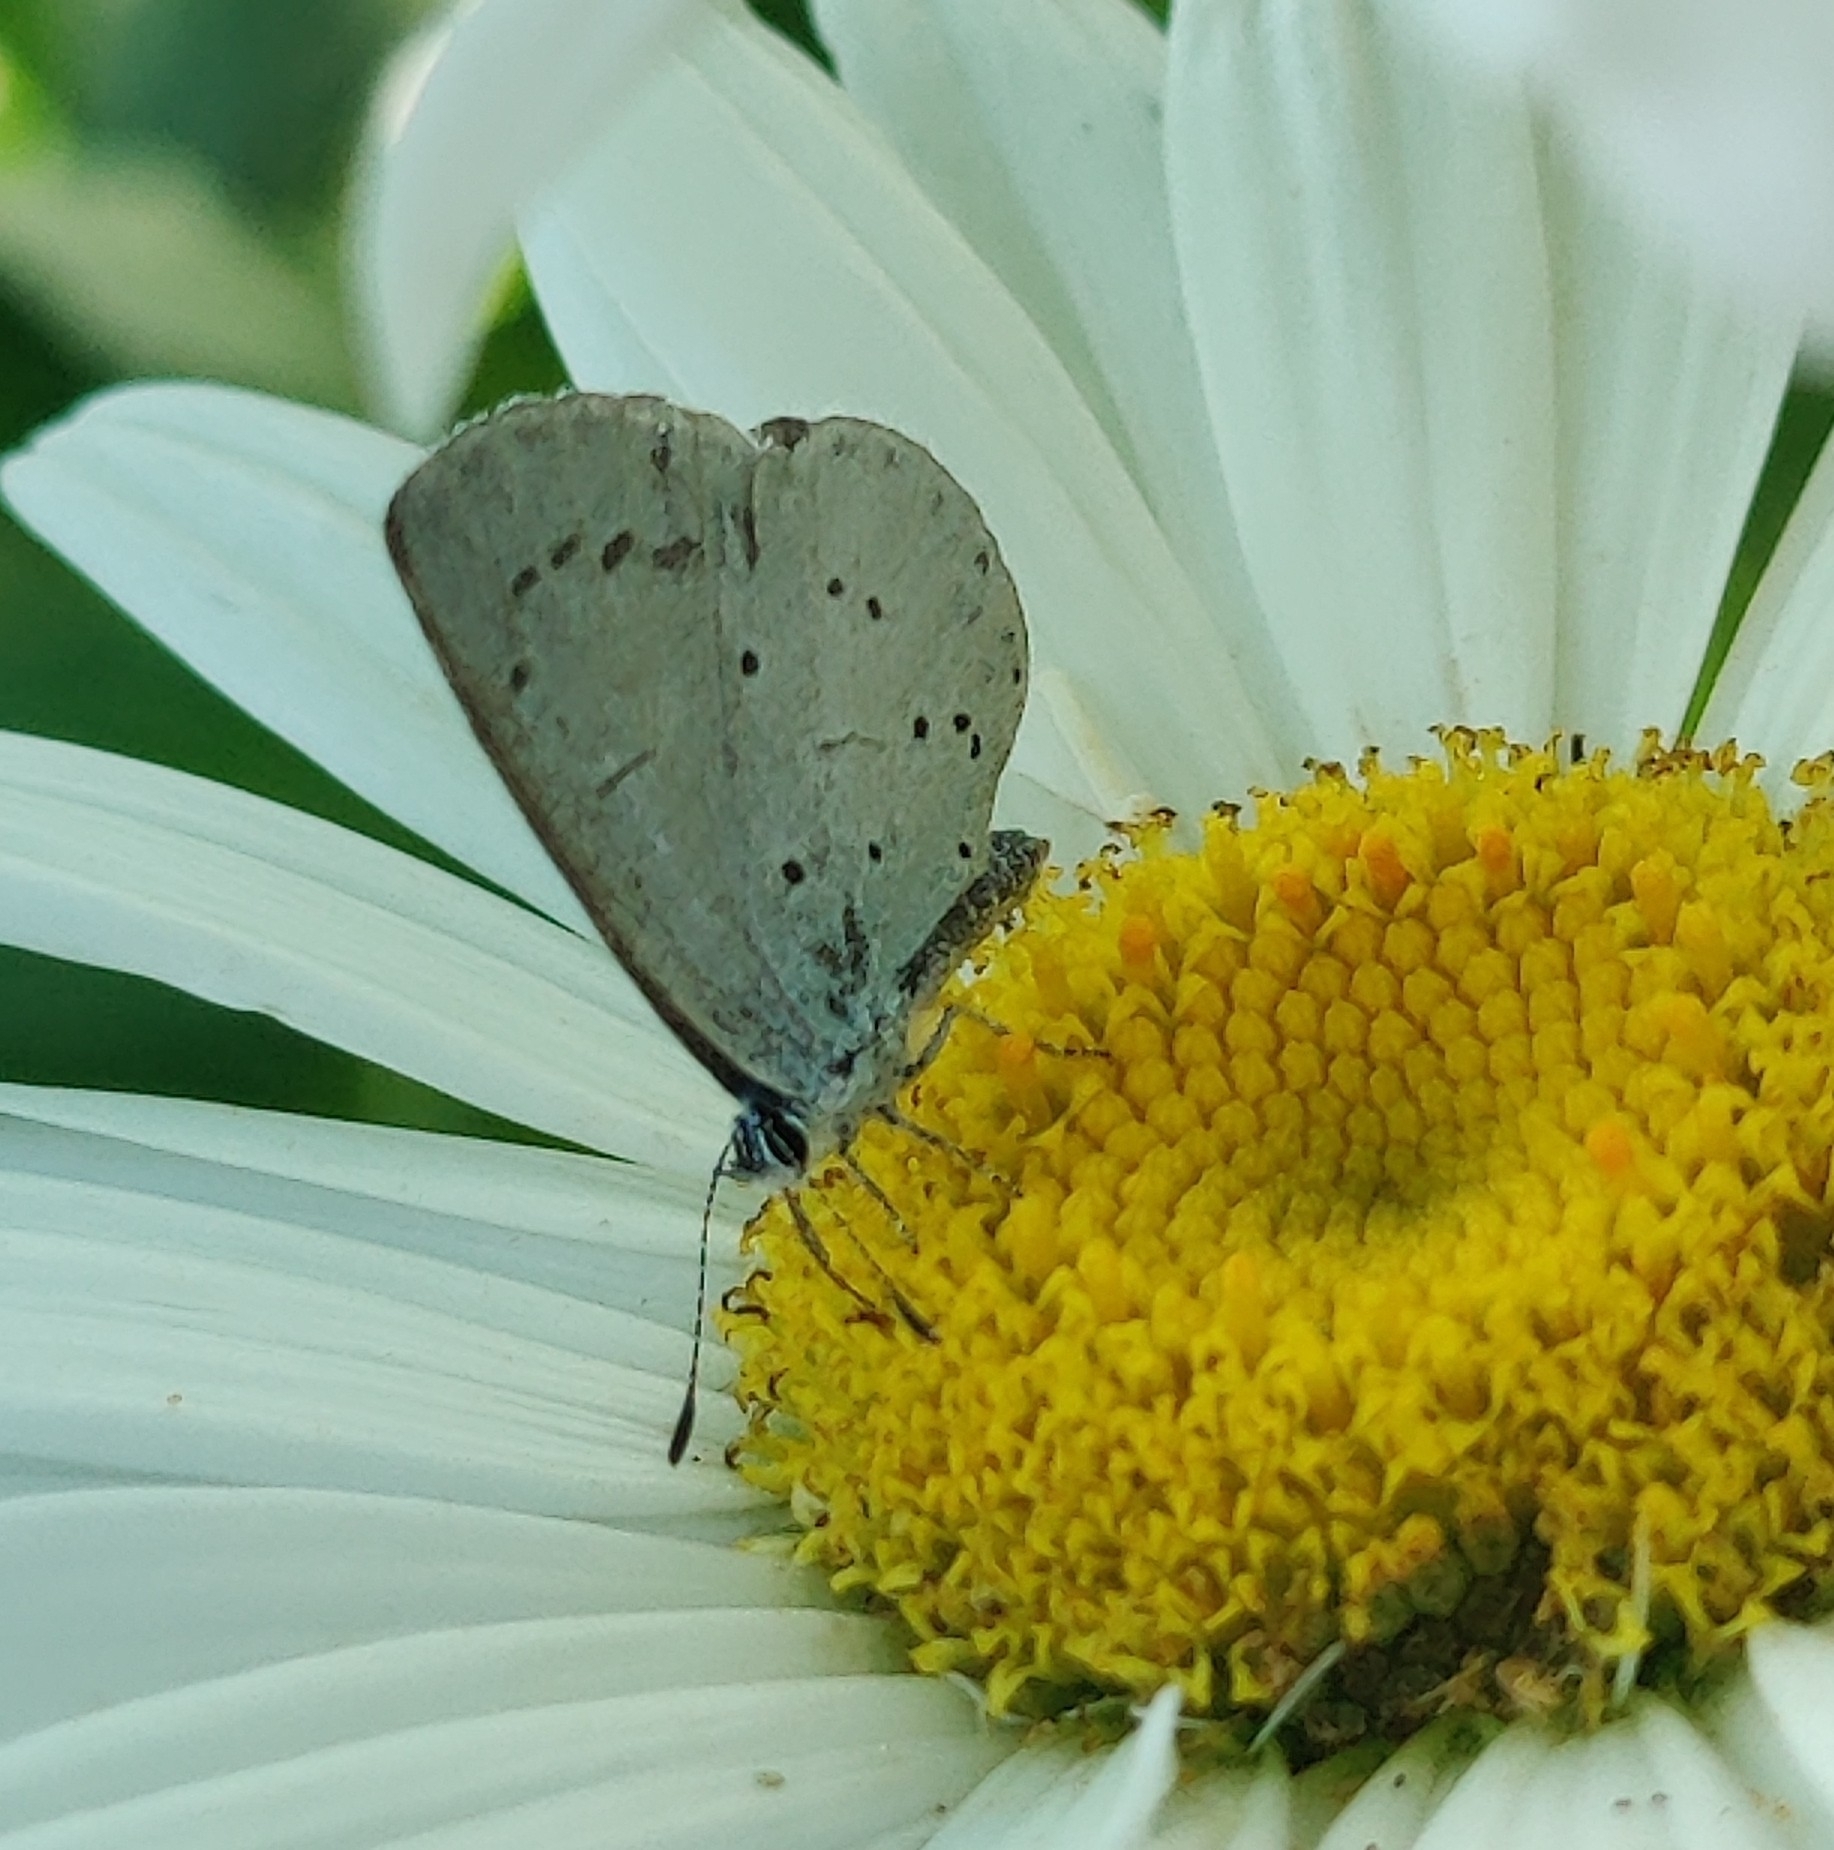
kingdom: Animalia
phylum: Arthropoda
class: Insecta
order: Lepidoptera
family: Lycaenidae
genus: Celastrina
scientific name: Celastrina argiolus
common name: Holly blue
